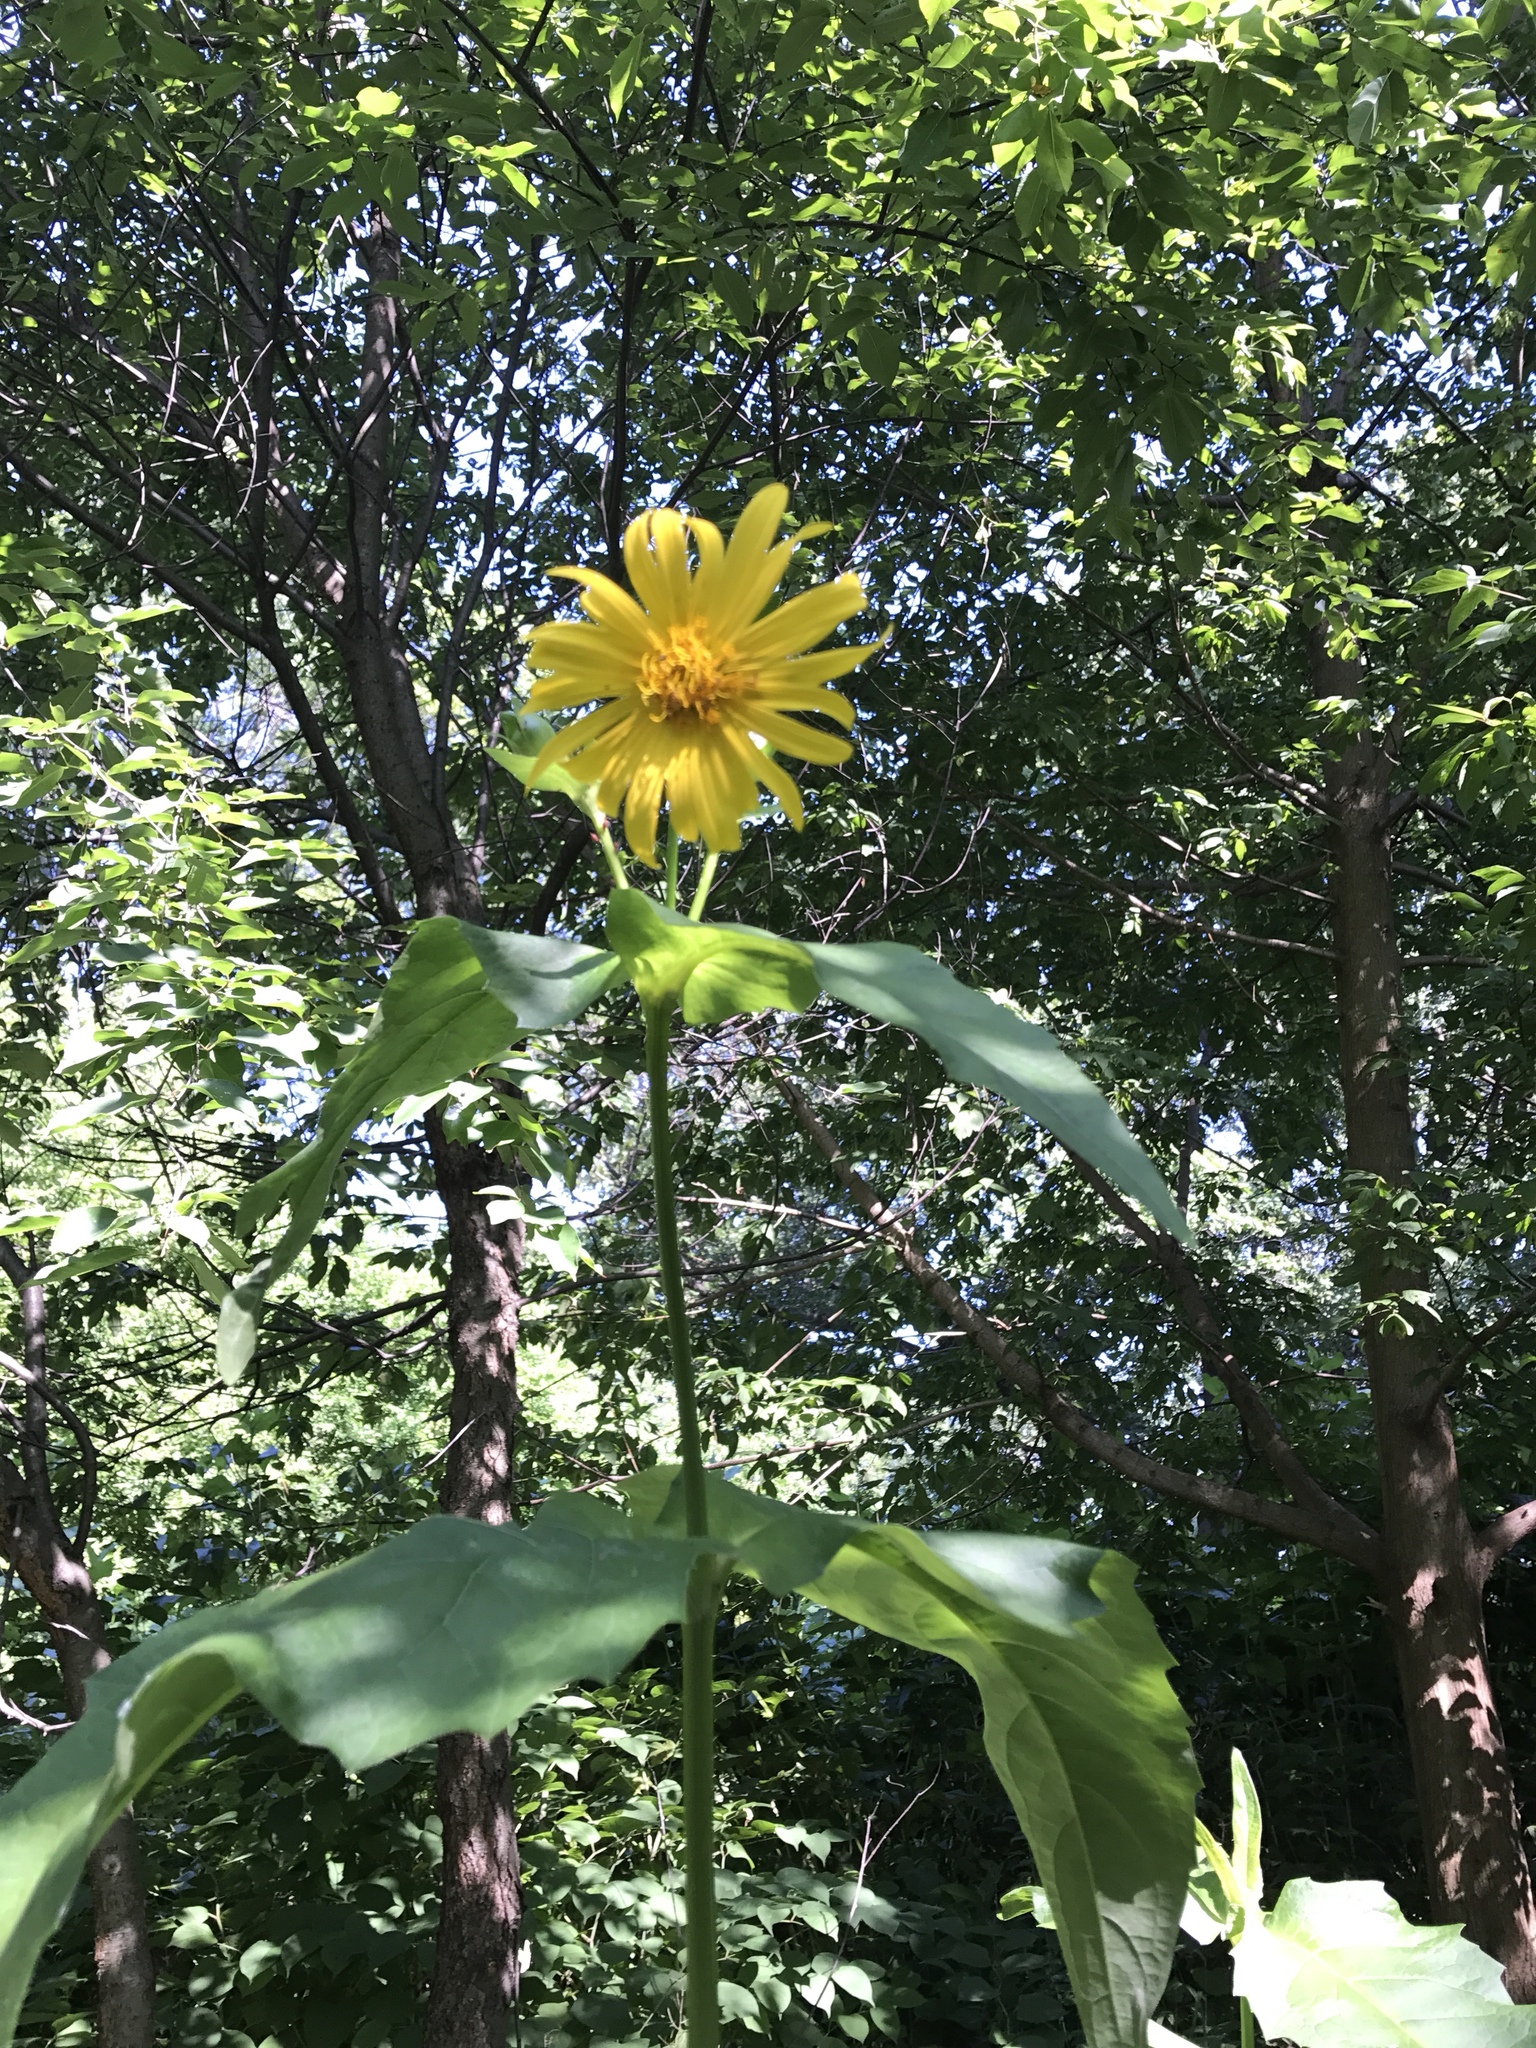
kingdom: Plantae
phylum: Tracheophyta
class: Magnoliopsida
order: Asterales
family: Asteraceae
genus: Silphium
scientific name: Silphium perfoliatum
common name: Cup-plant
